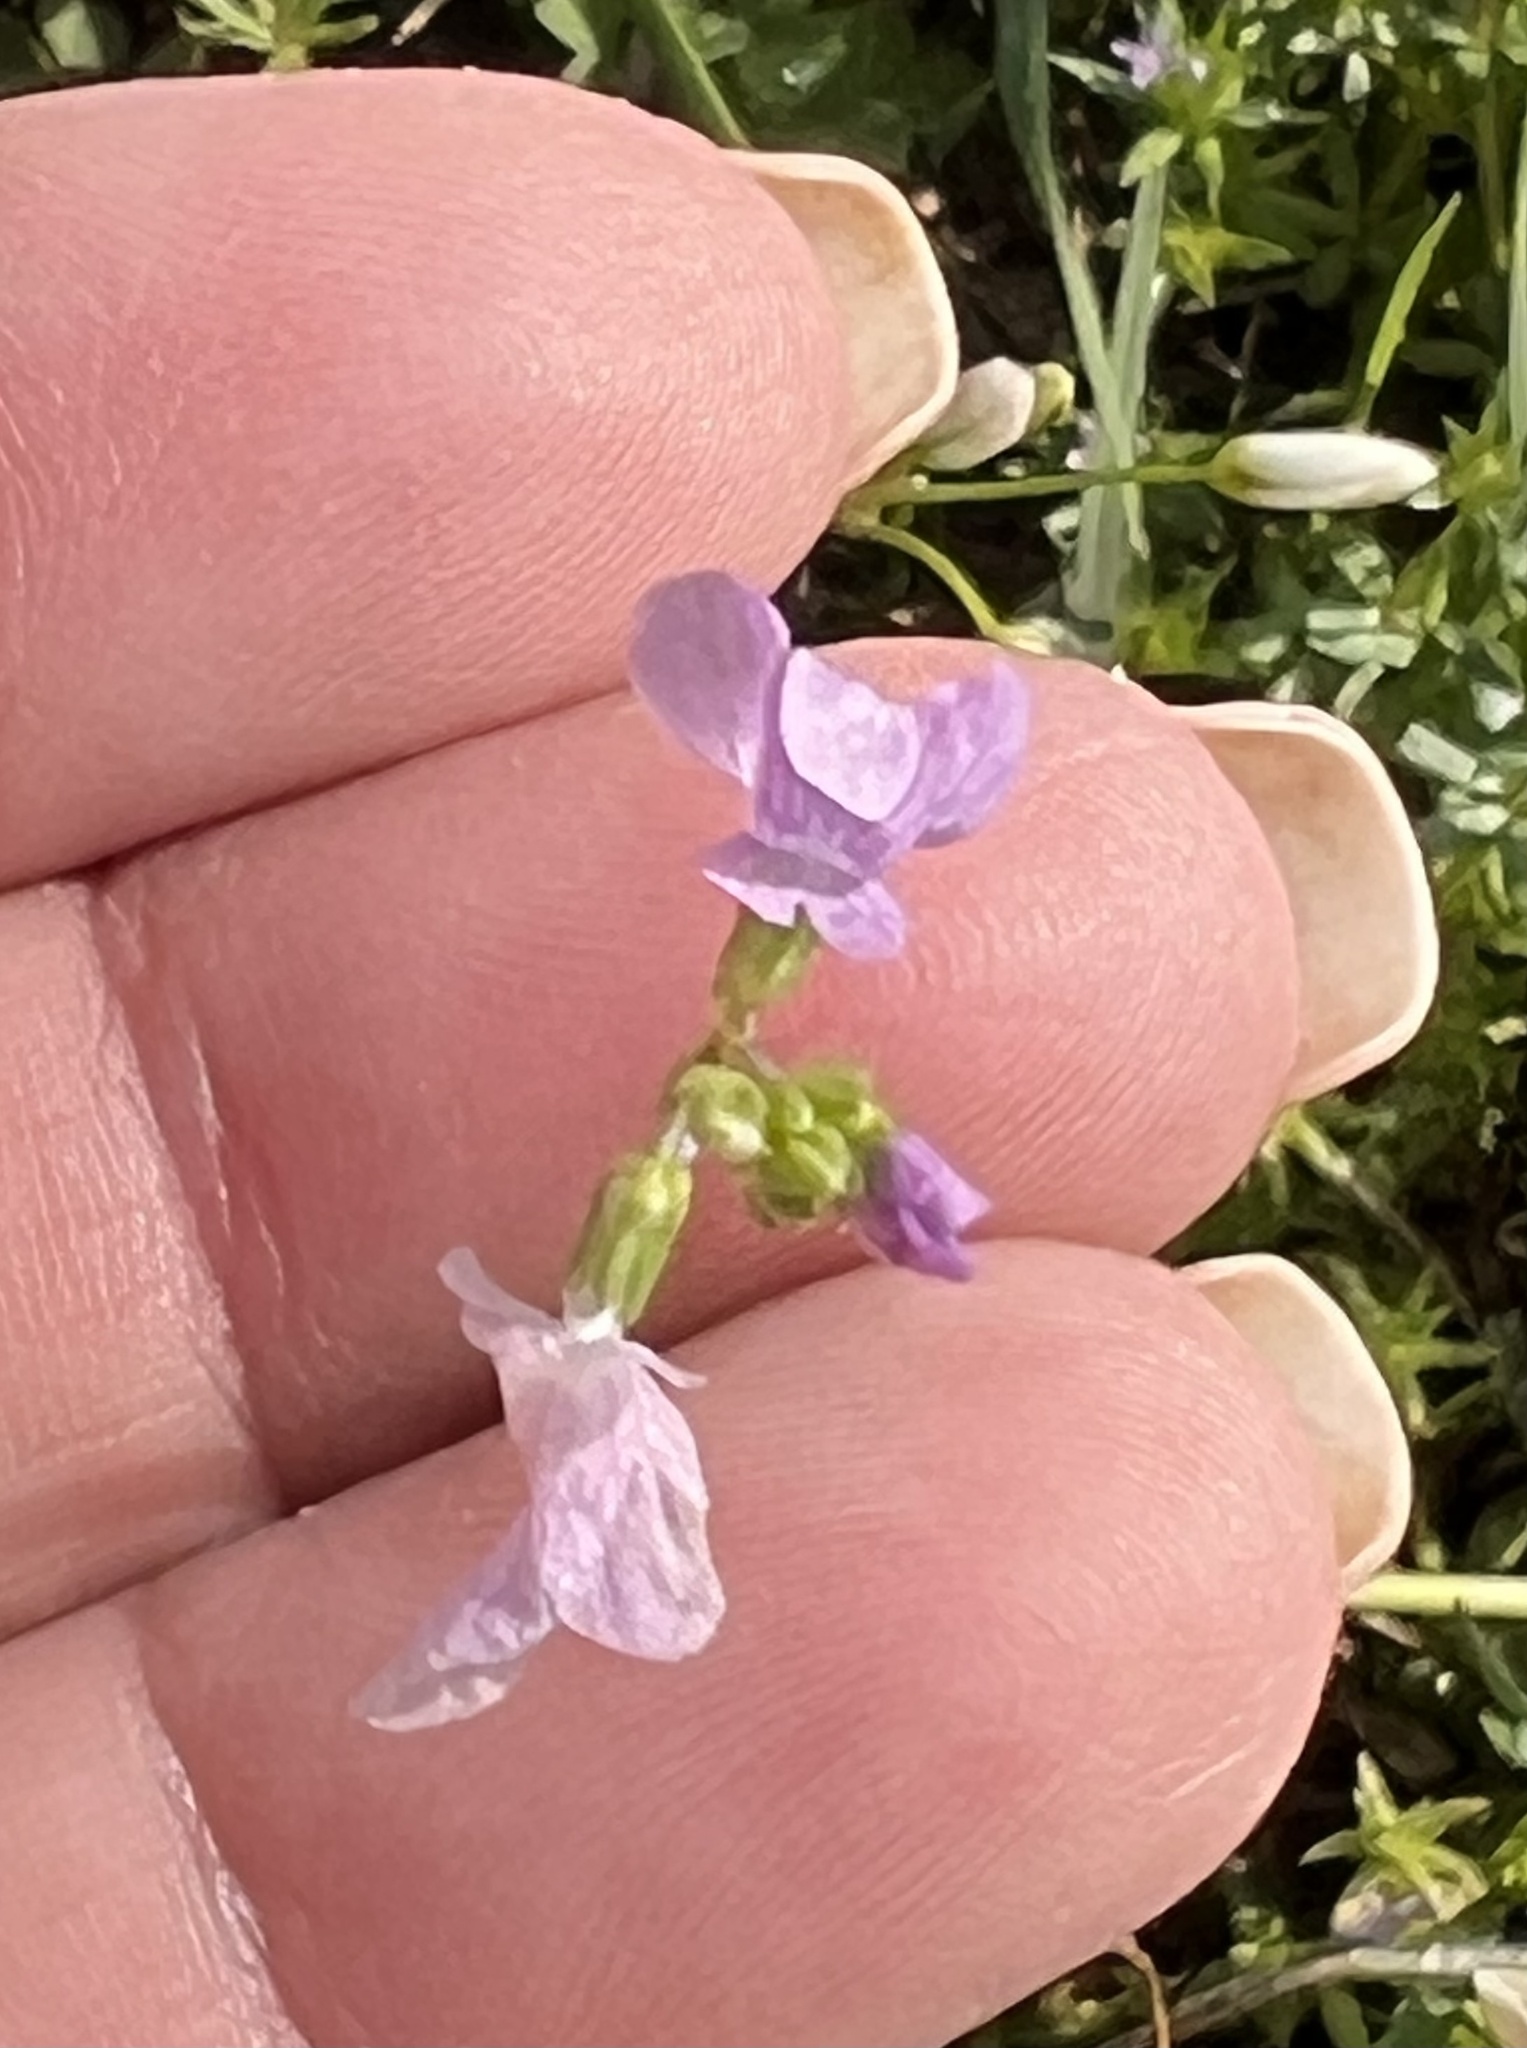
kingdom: Plantae
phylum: Tracheophyta
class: Magnoliopsida
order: Lamiales
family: Plantaginaceae
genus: Nuttallanthus
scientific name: Nuttallanthus texanus
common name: Texas toadflax
